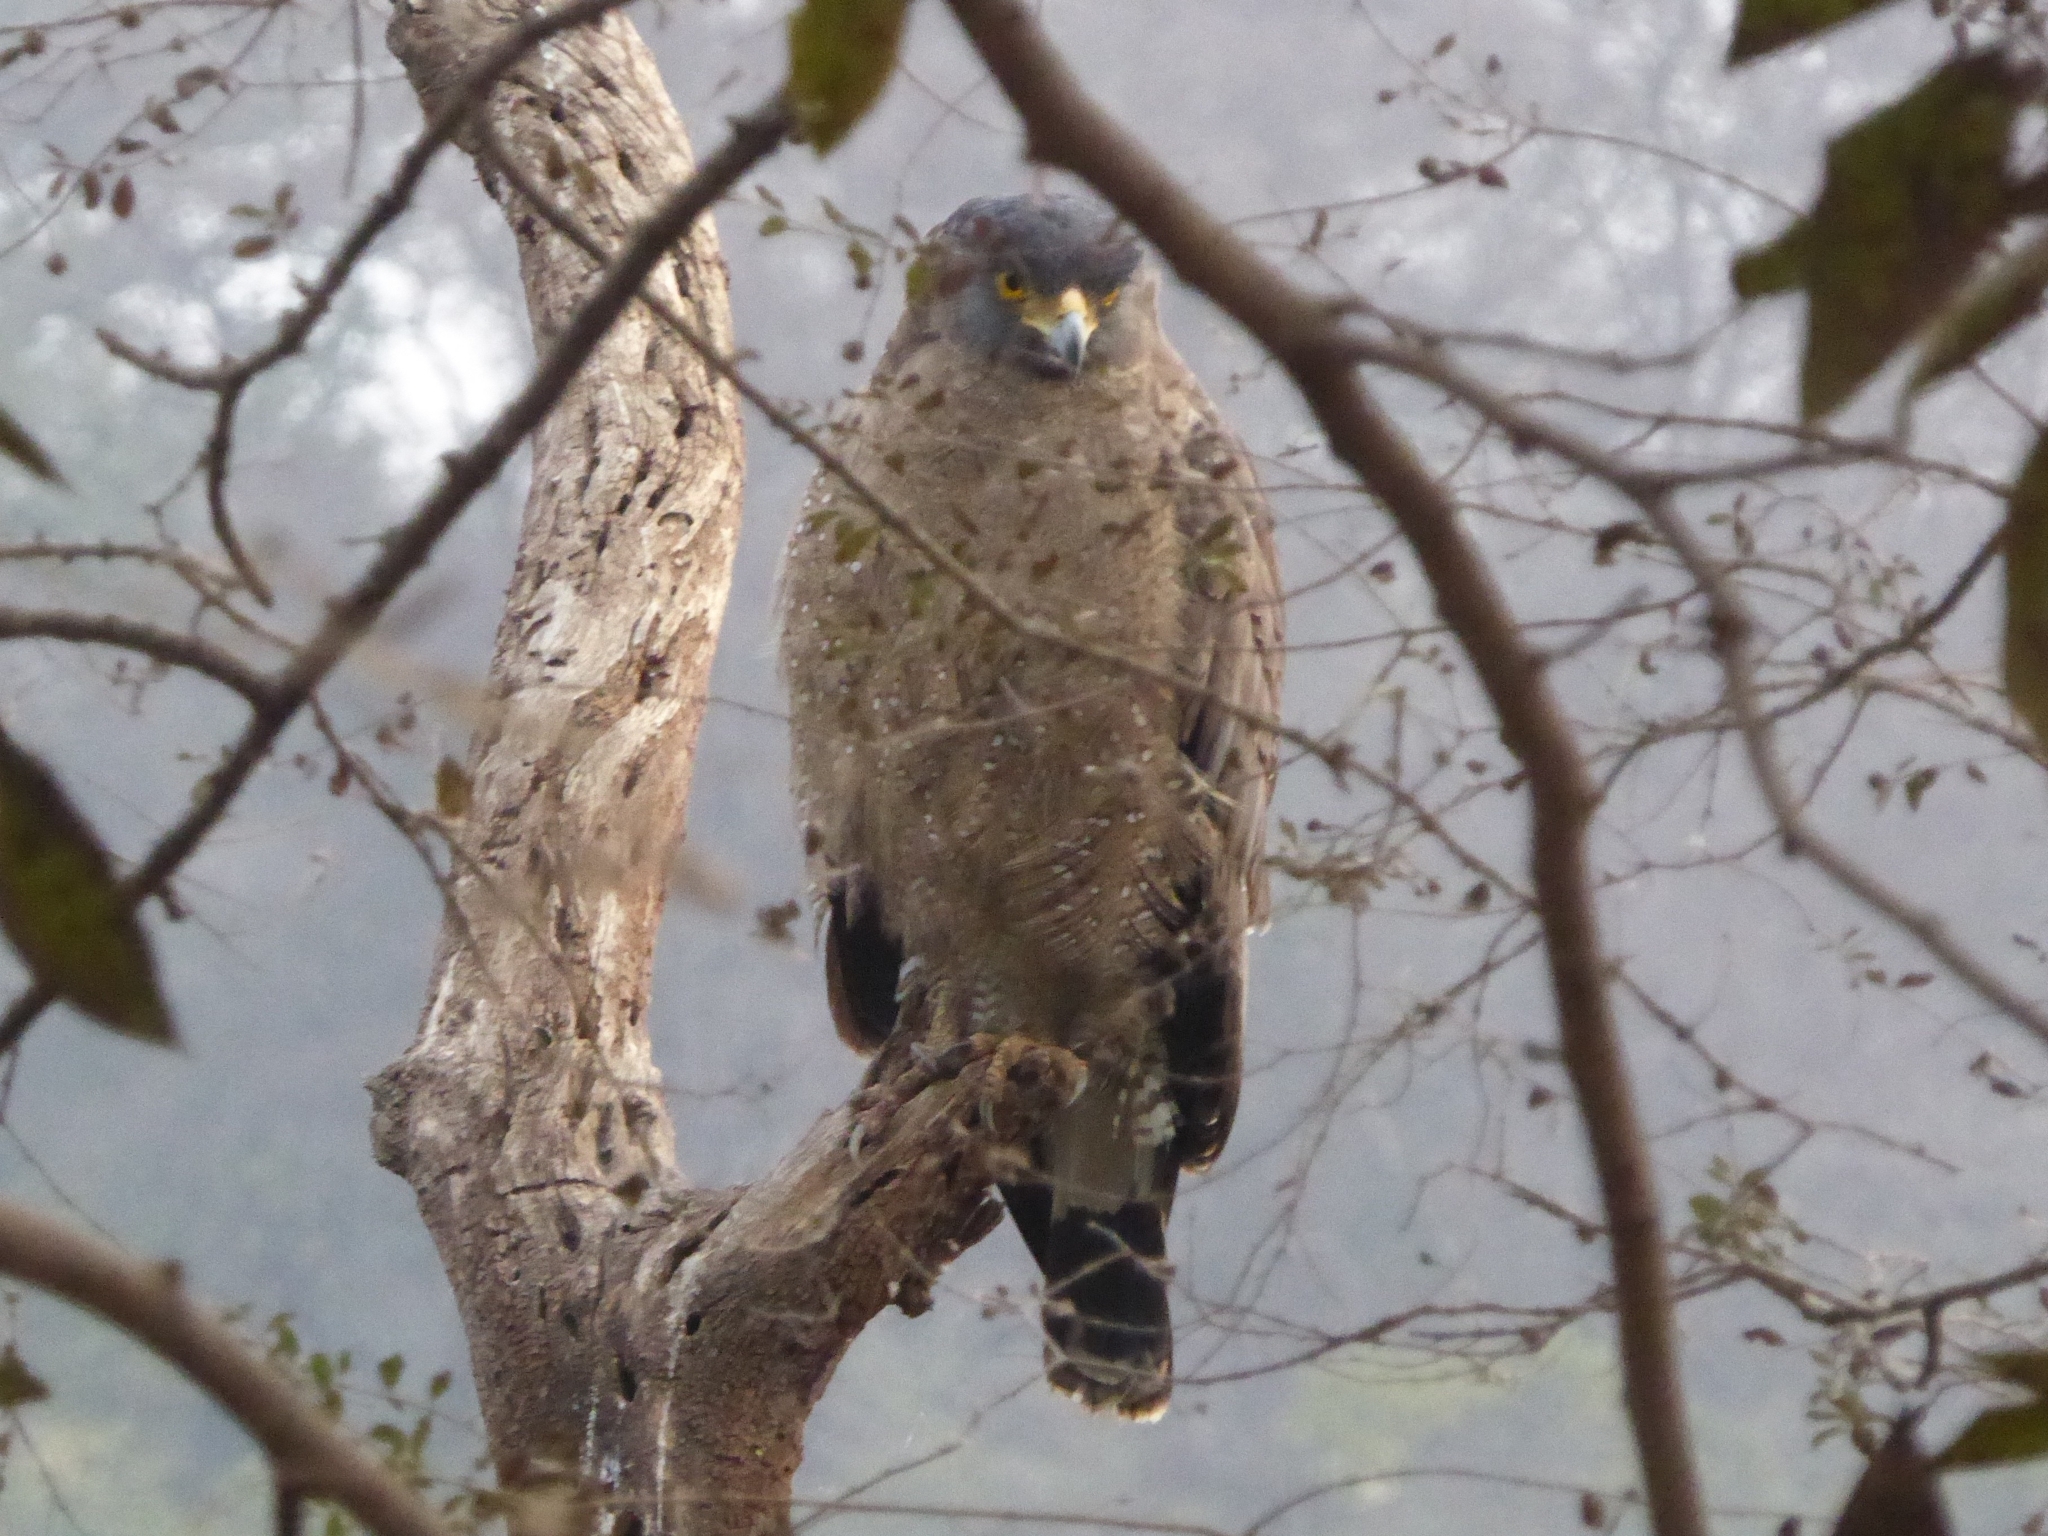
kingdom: Animalia
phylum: Chordata
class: Aves
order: Accipitriformes
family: Accipitridae
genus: Spilornis
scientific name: Spilornis cheela
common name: Crested serpent eagle
